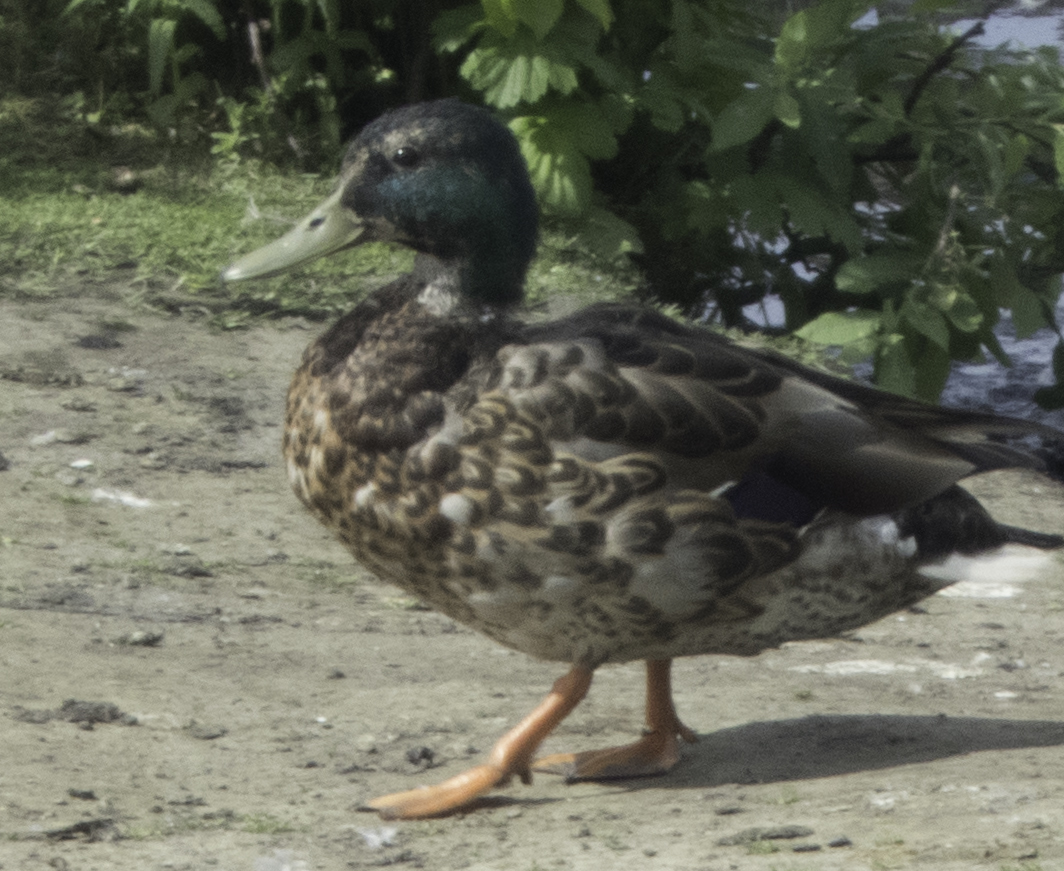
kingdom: Animalia
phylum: Chordata
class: Aves
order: Anseriformes
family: Anatidae
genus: Anas
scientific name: Anas platyrhynchos
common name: Mallard
